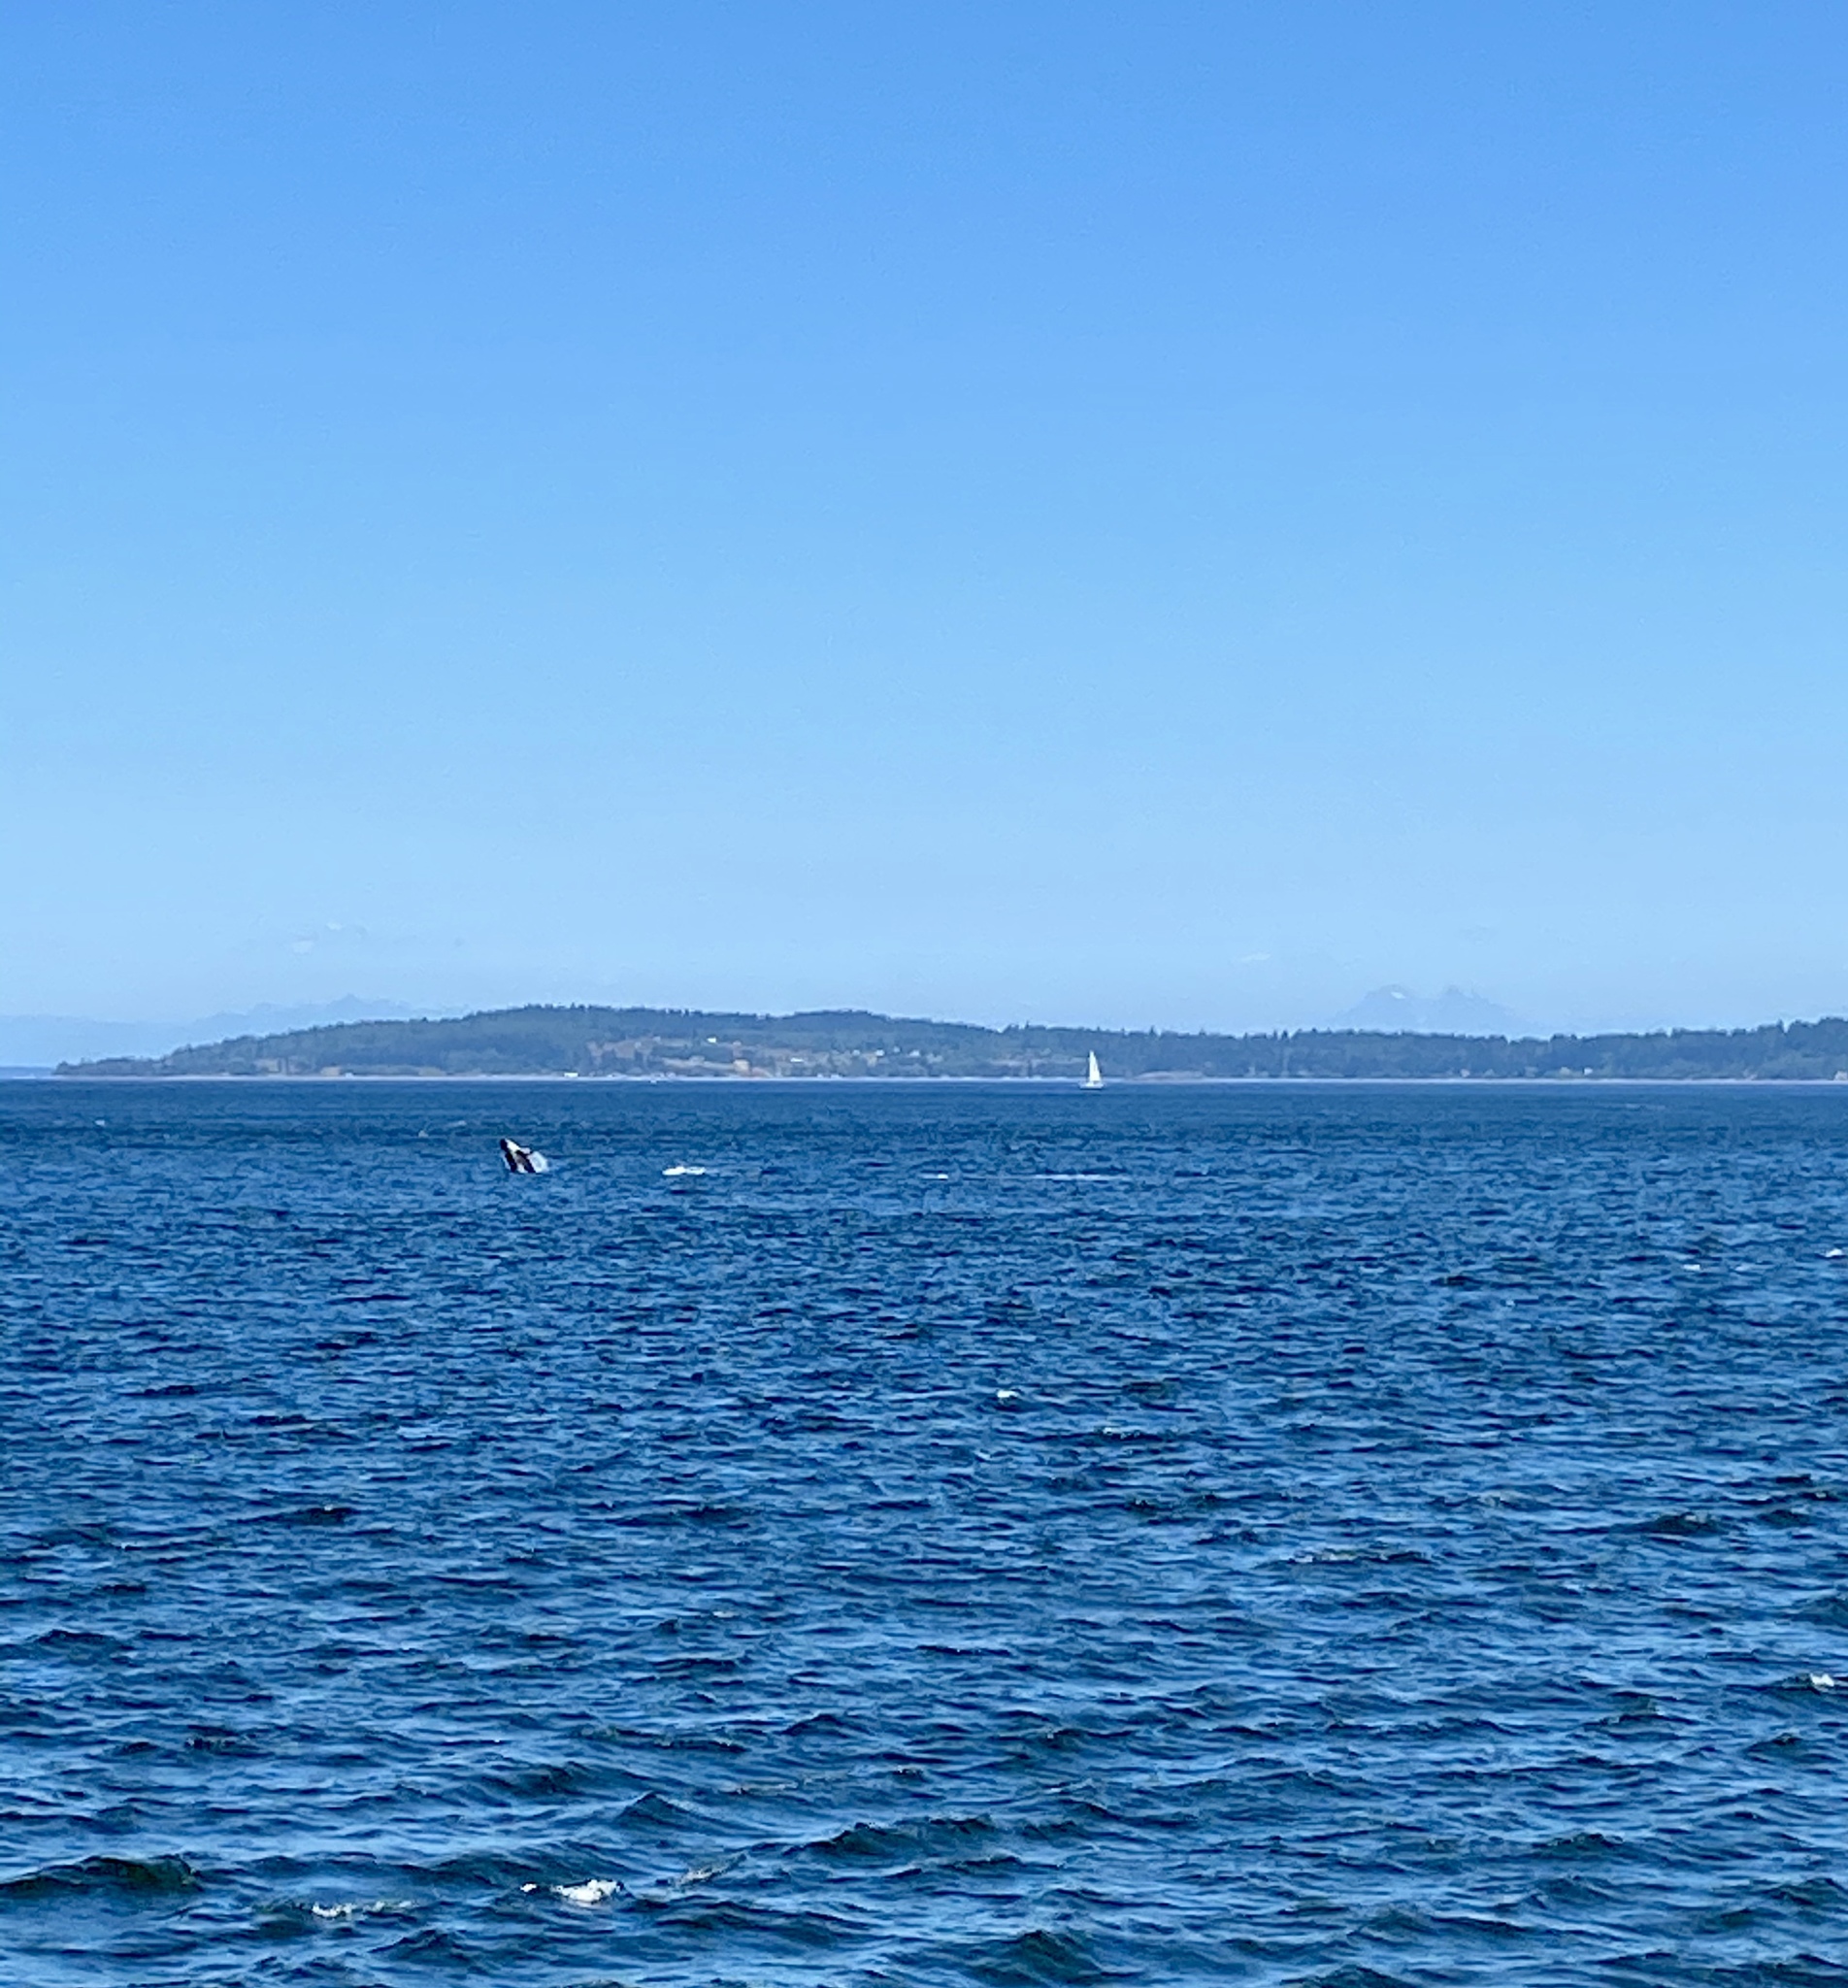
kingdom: Animalia
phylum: Chordata
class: Mammalia
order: Cetacea
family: Delphinidae
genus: Orcinus
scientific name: Orcinus orca
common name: Killer whale
